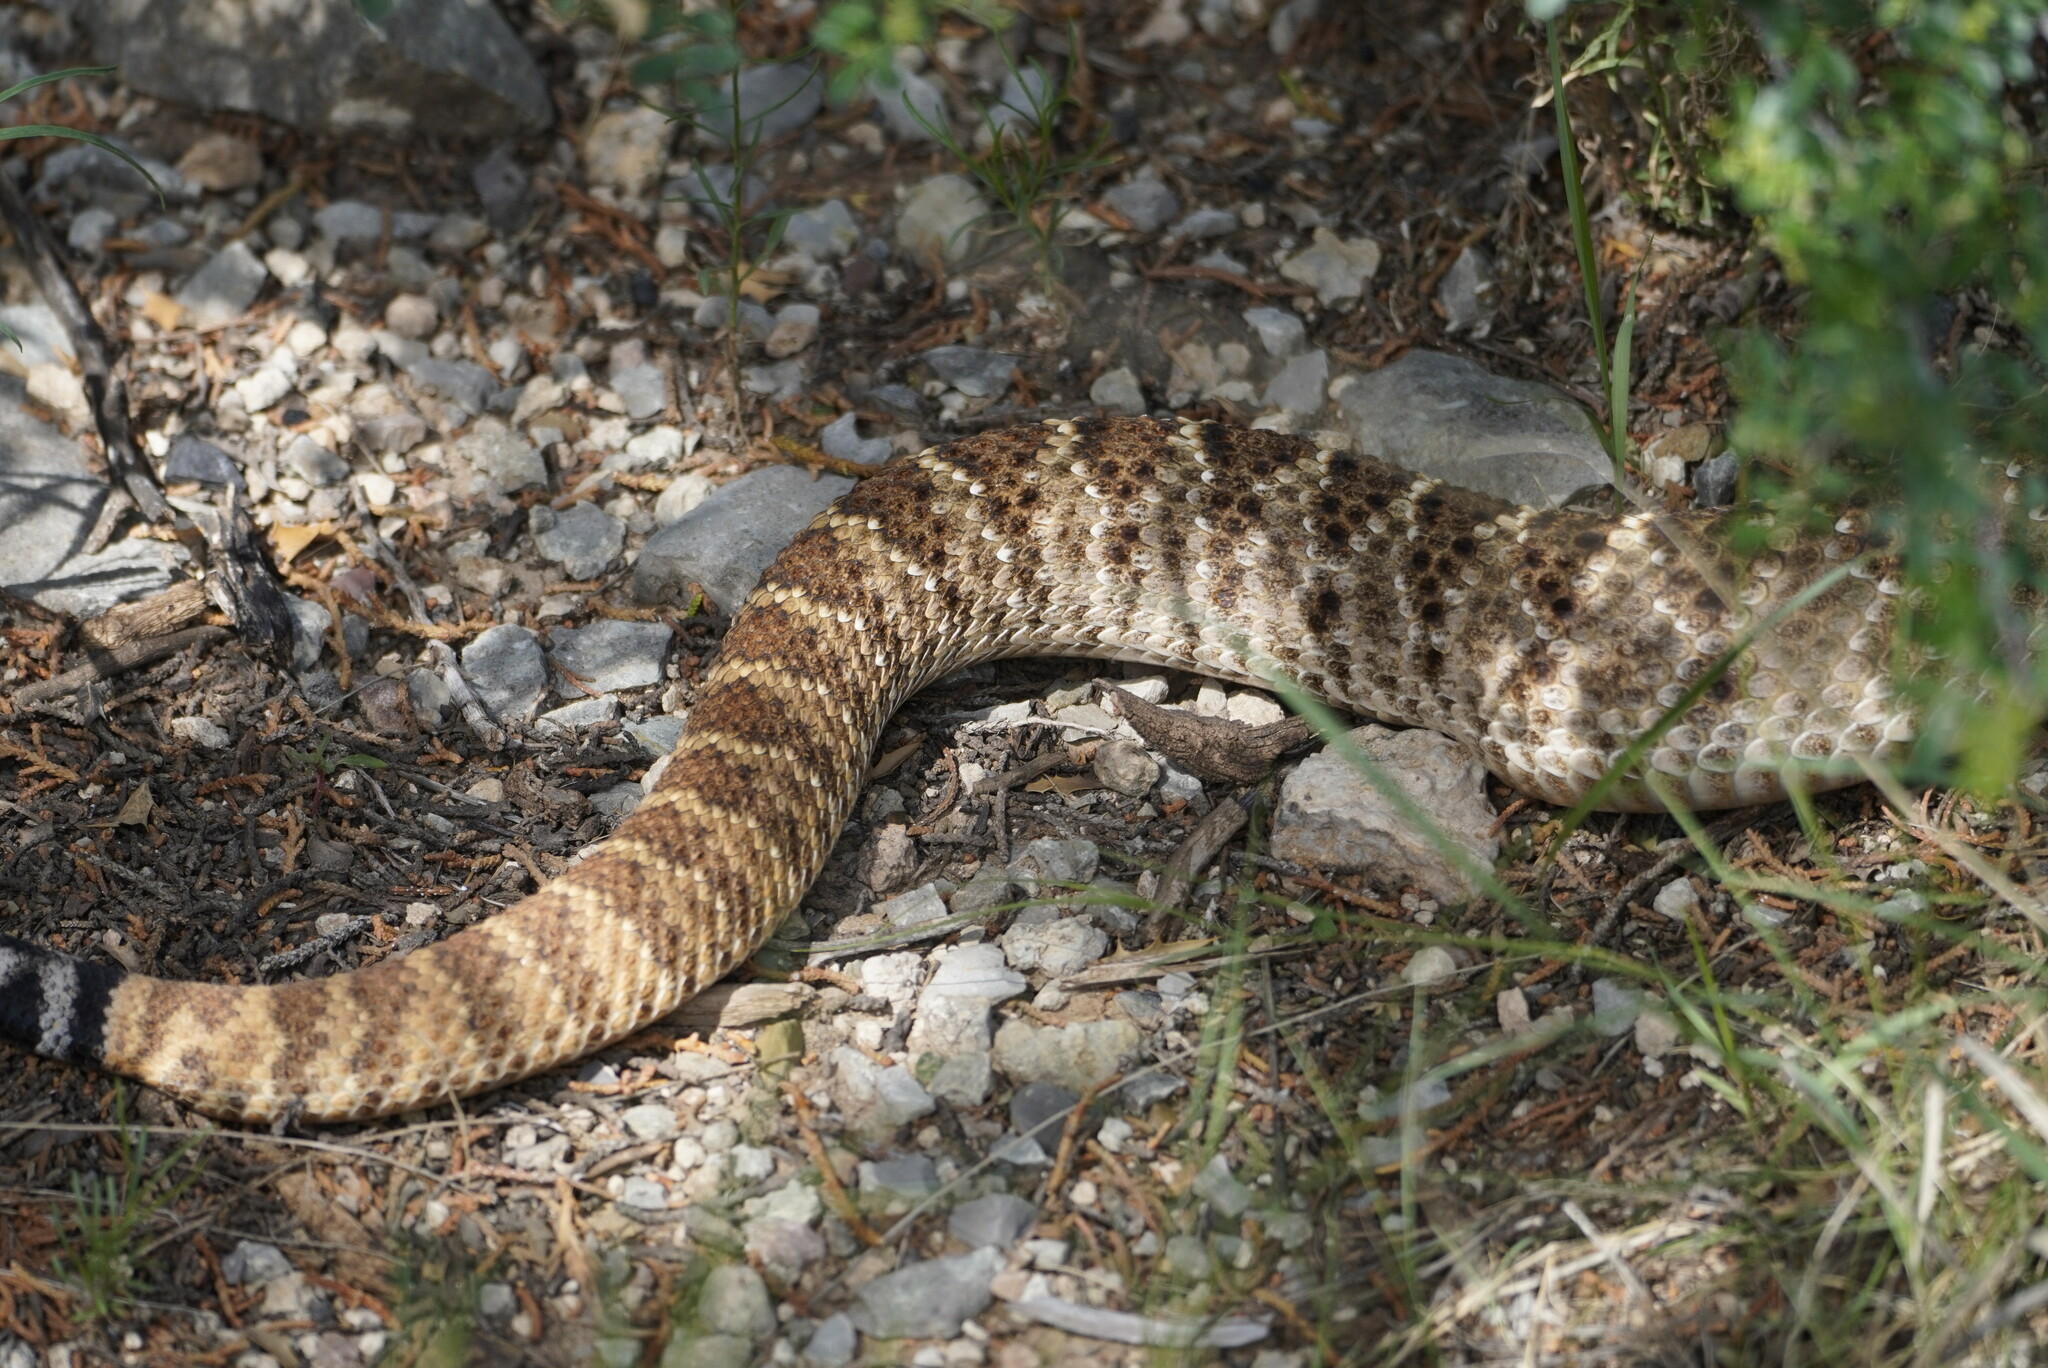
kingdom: Animalia
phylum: Chordata
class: Squamata
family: Viperidae
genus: Crotalus
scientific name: Crotalus atrox
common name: Western diamond-backed rattlesnake
